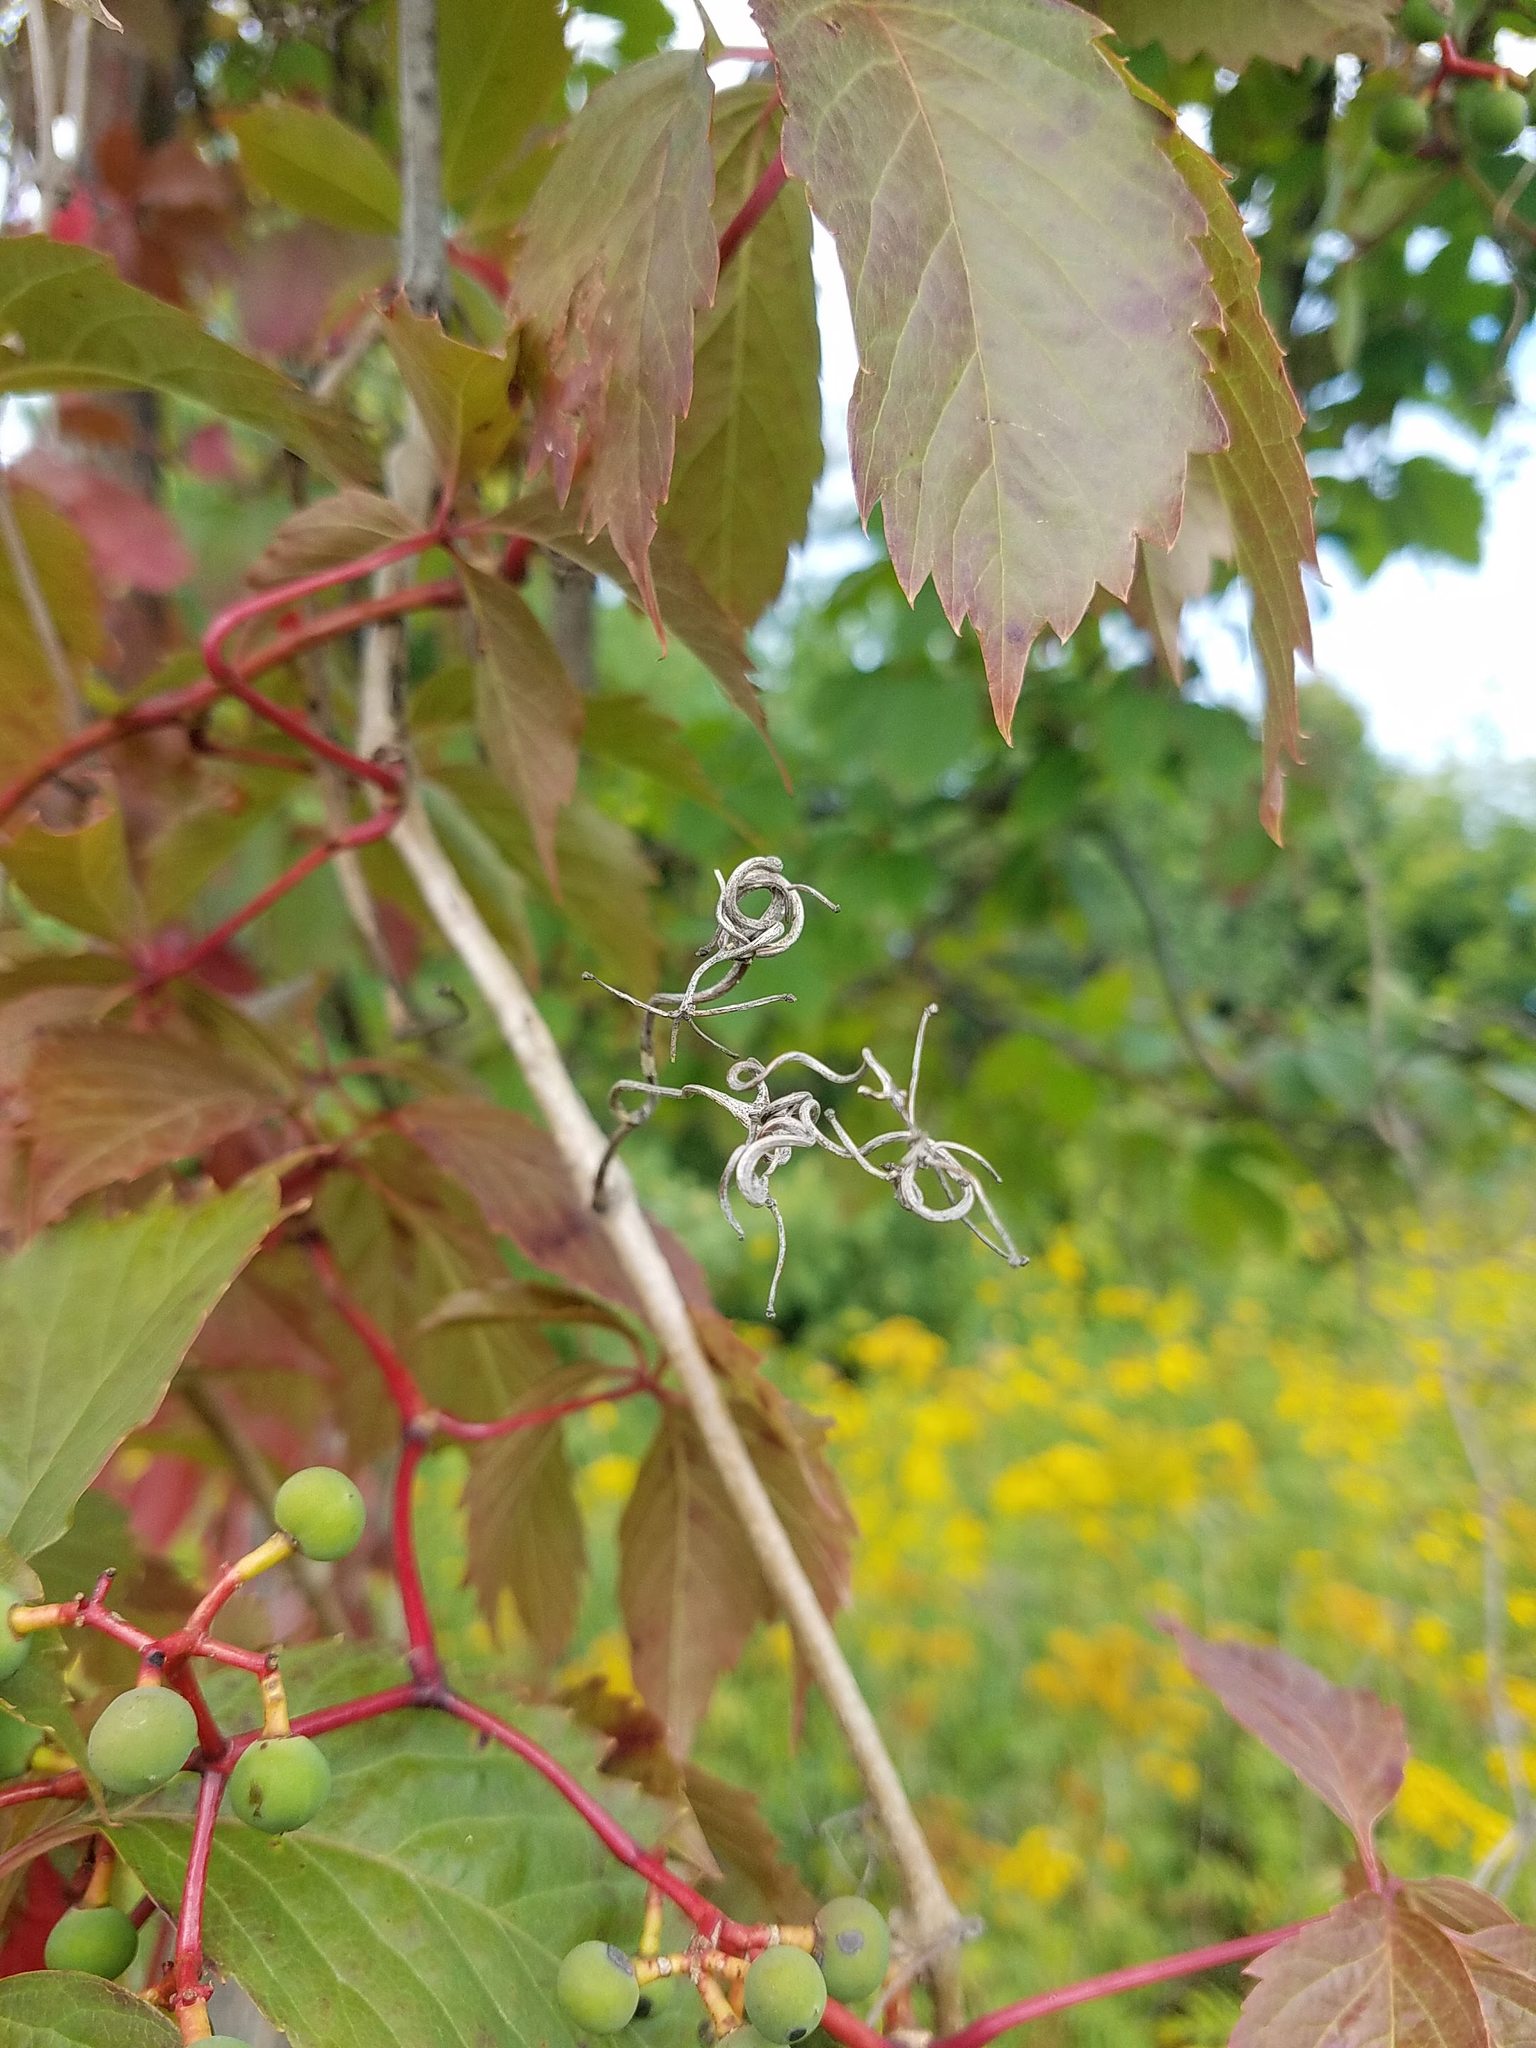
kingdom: Plantae
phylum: Tracheophyta
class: Magnoliopsida
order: Vitales
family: Vitaceae
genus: Parthenocissus
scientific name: Parthenocissus quinquefolia
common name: Virginia-creeper
